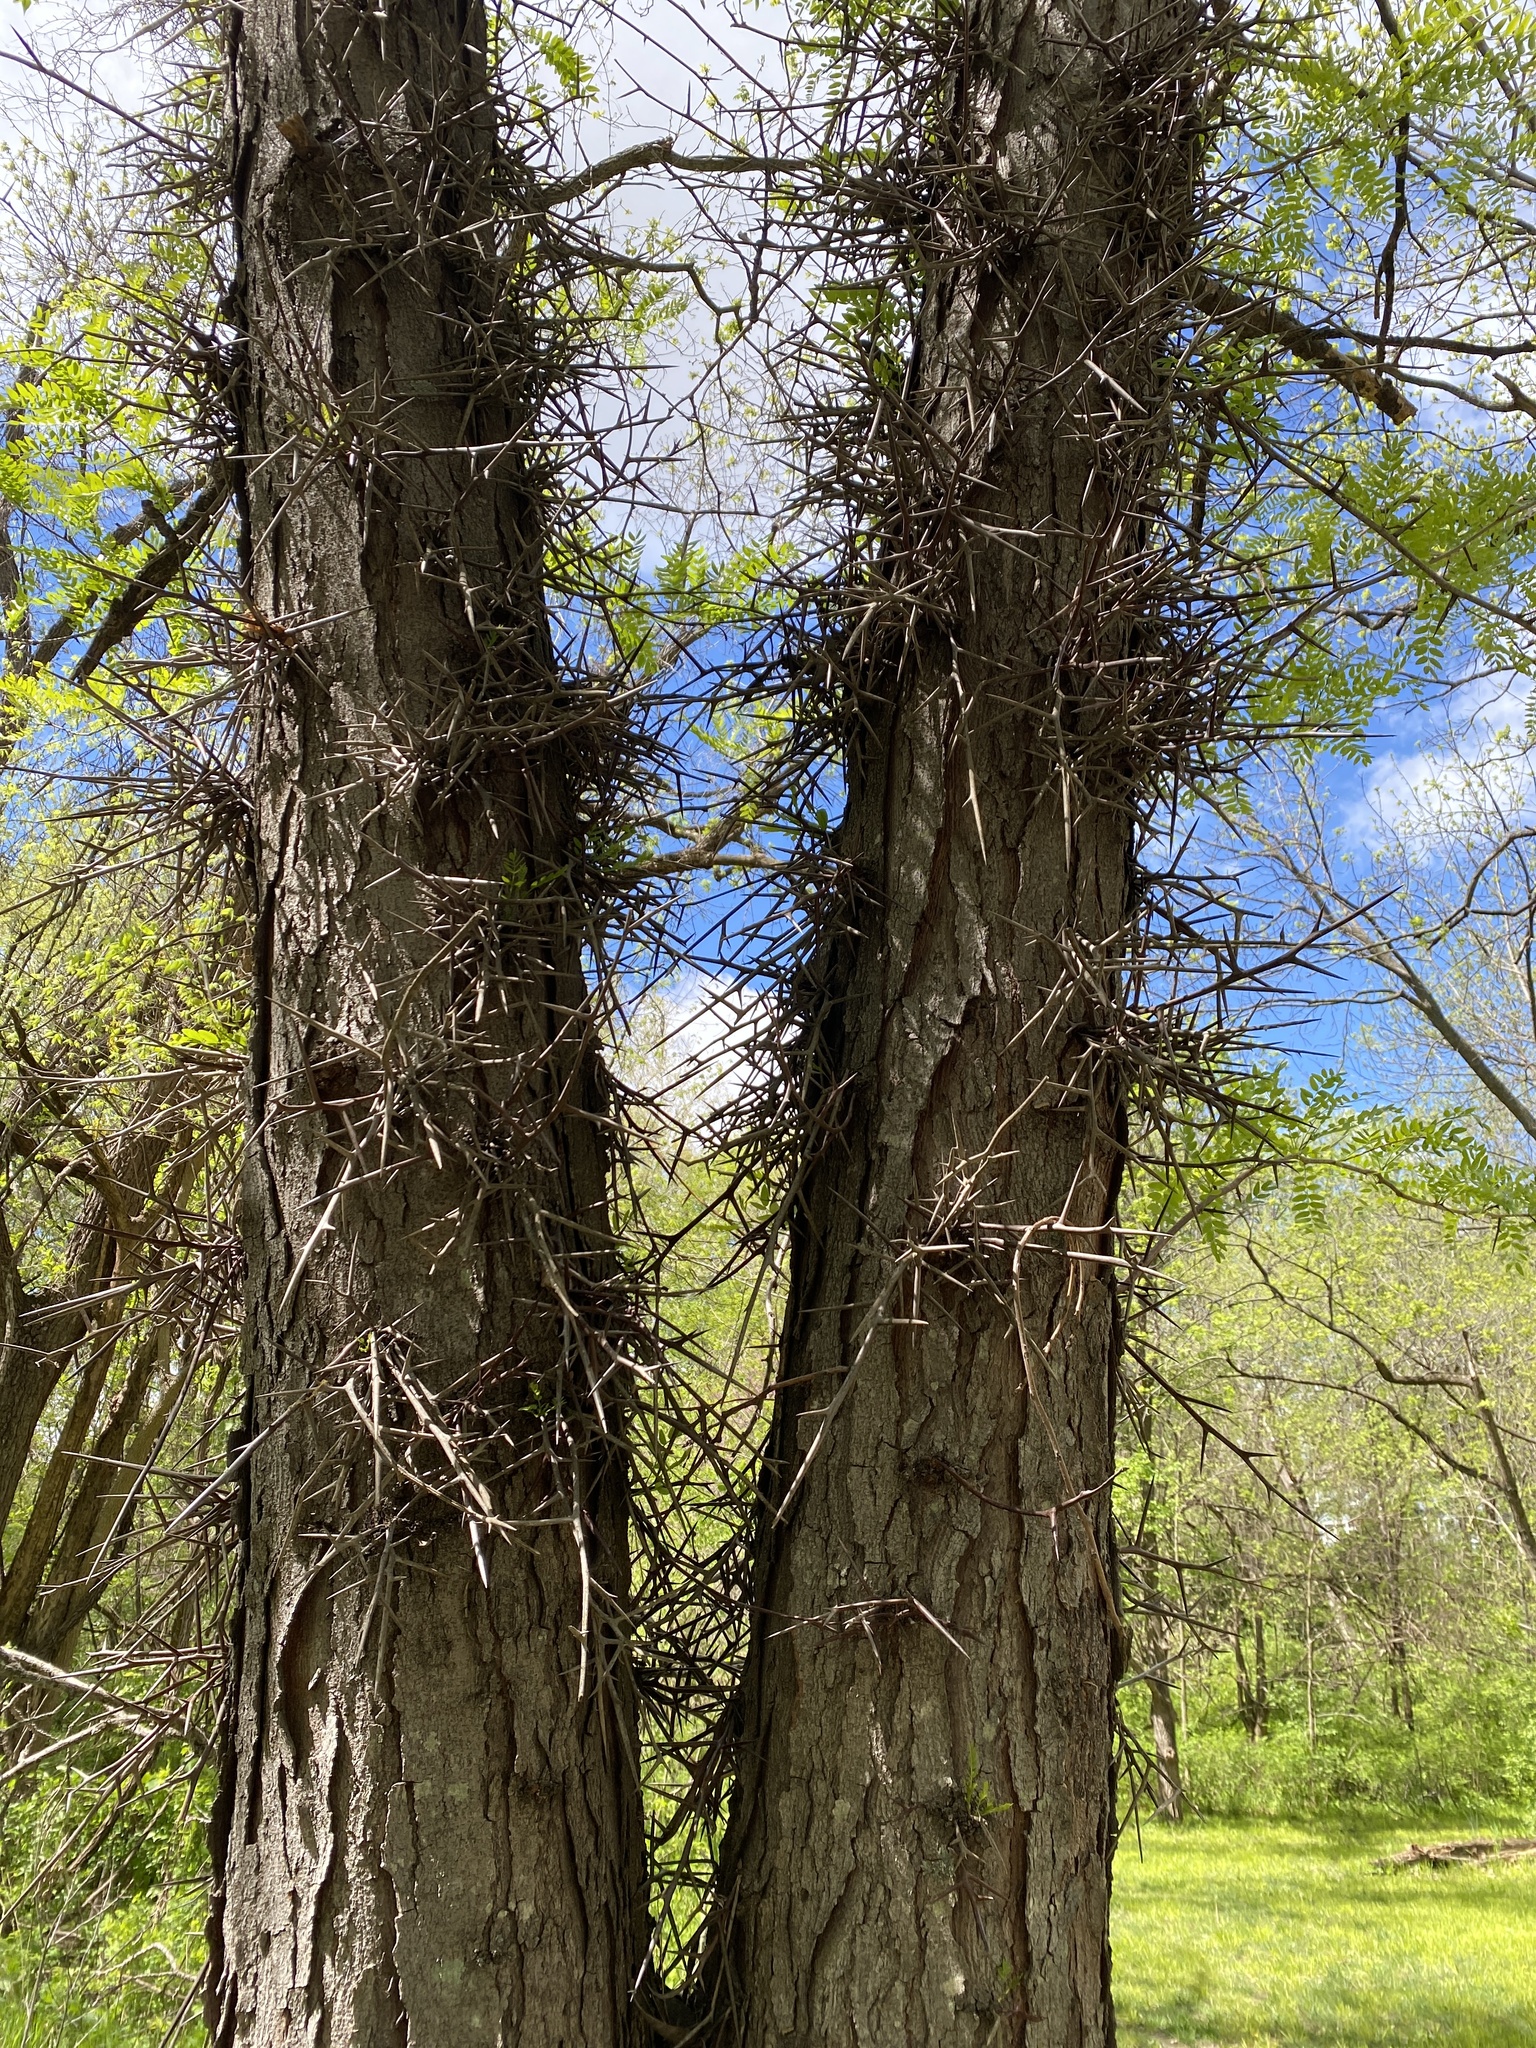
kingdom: Plantae
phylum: Tracheophyta
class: Magnoliopsida
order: Fabales
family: Fabaceae
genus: Gleditsia
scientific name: Gleditsia triacanthos
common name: Common honeylocust
